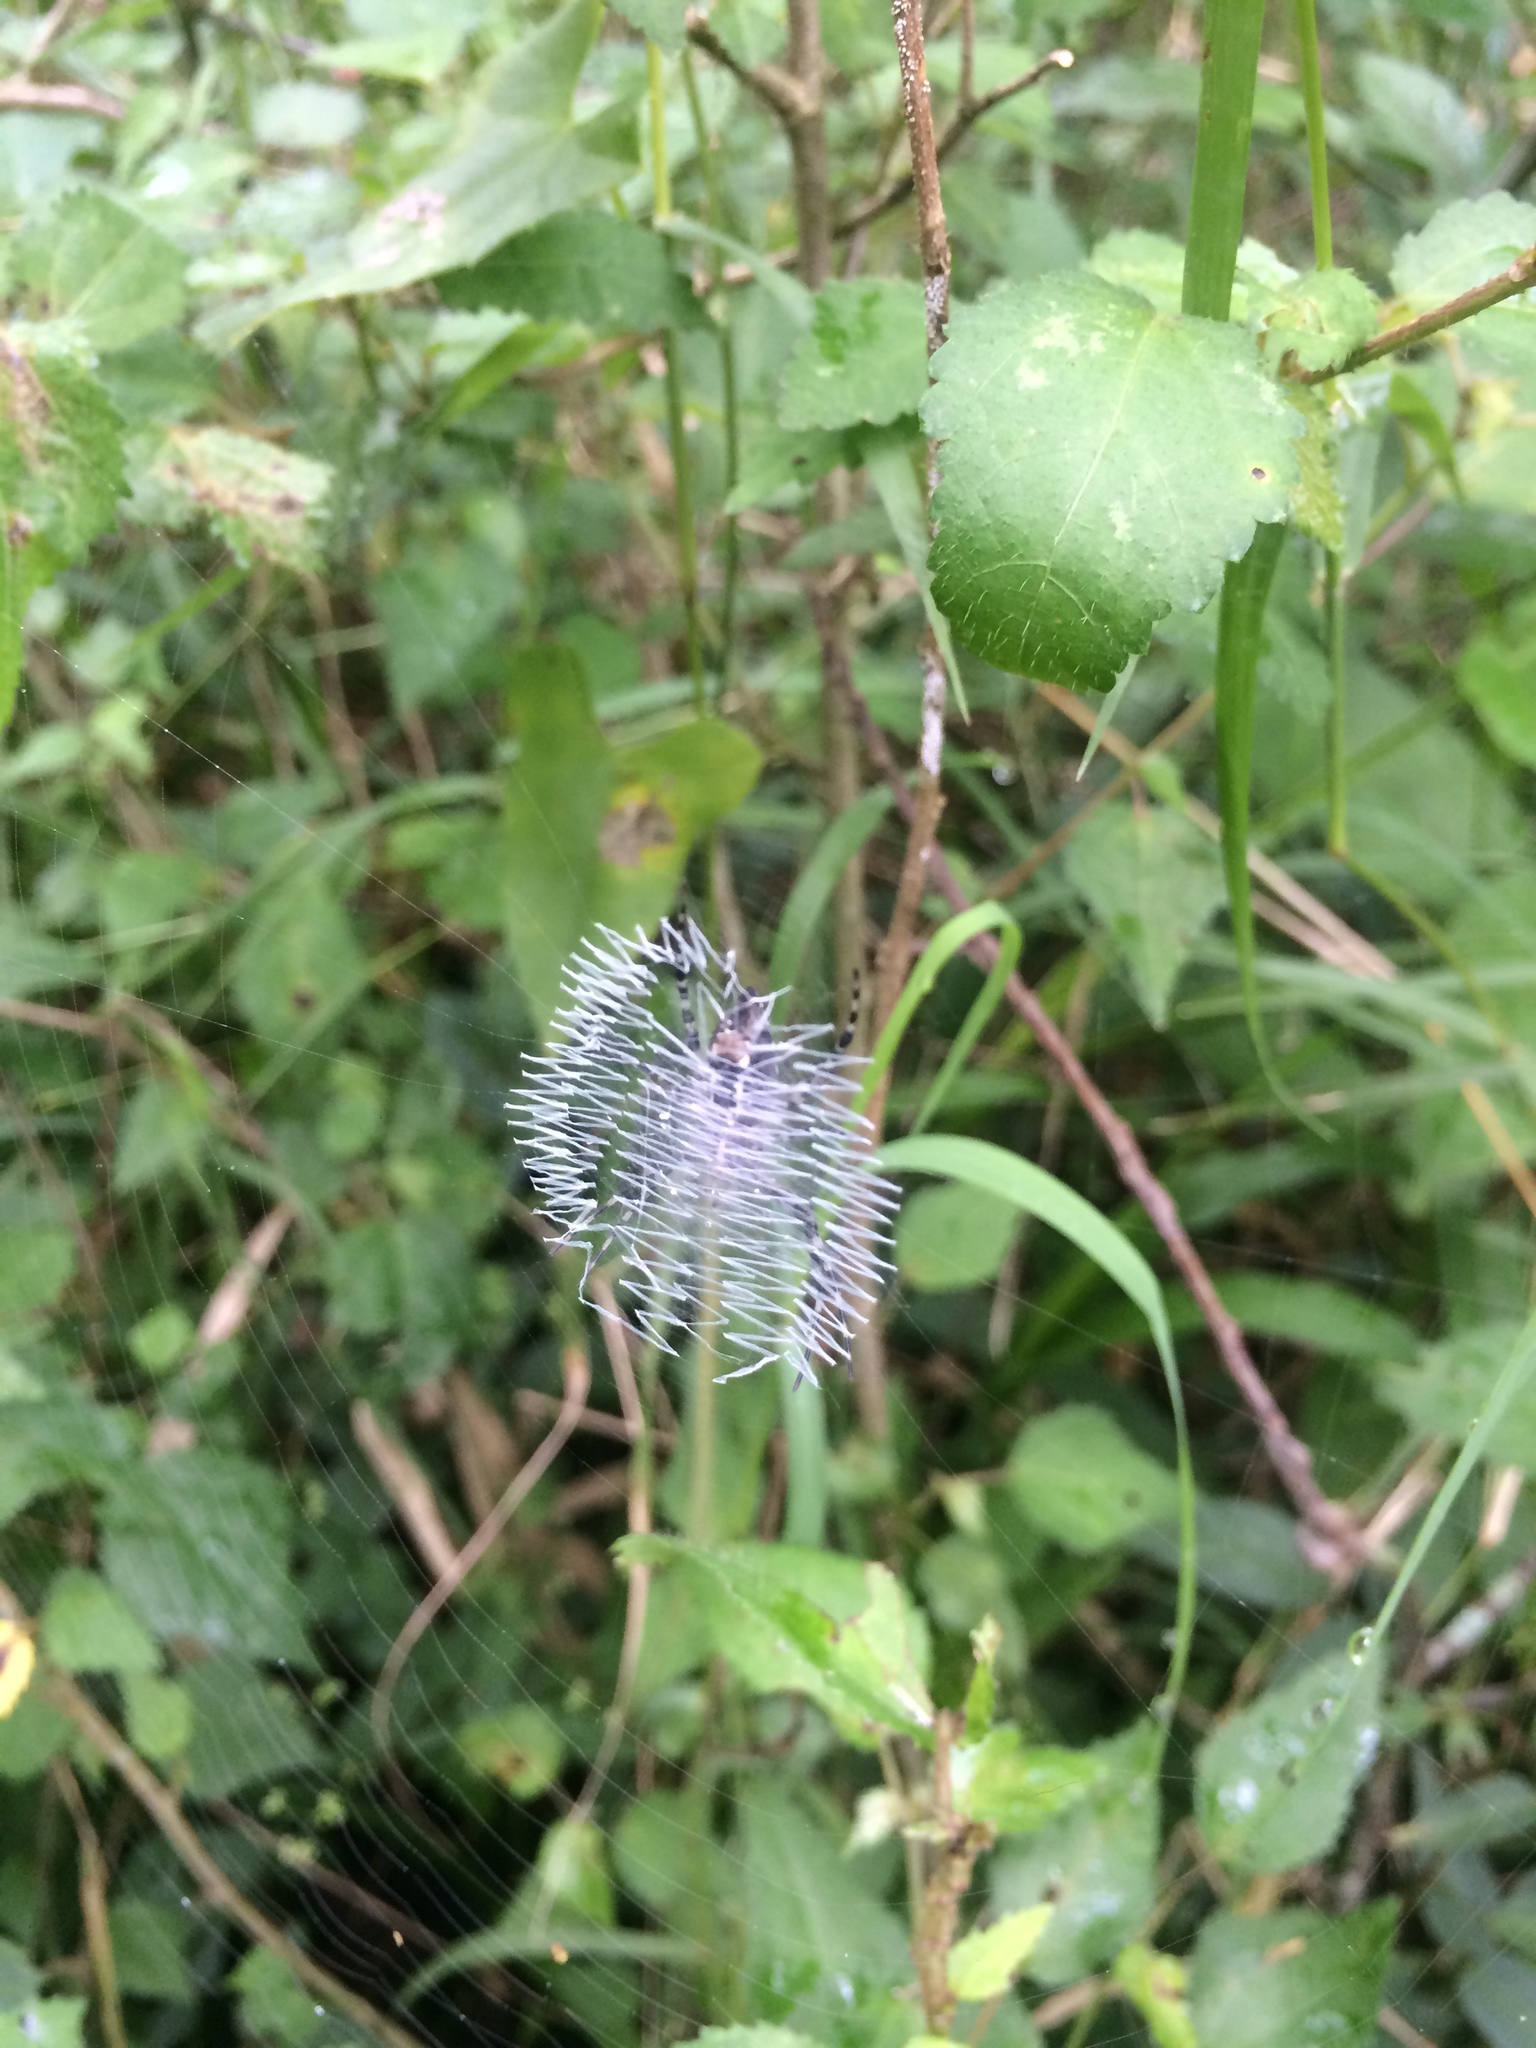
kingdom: Animalia
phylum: Arthropoda
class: Arachnida
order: Araneae
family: Araneidae
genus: Argiope
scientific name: Argiope aurantia
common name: Orb weavers
